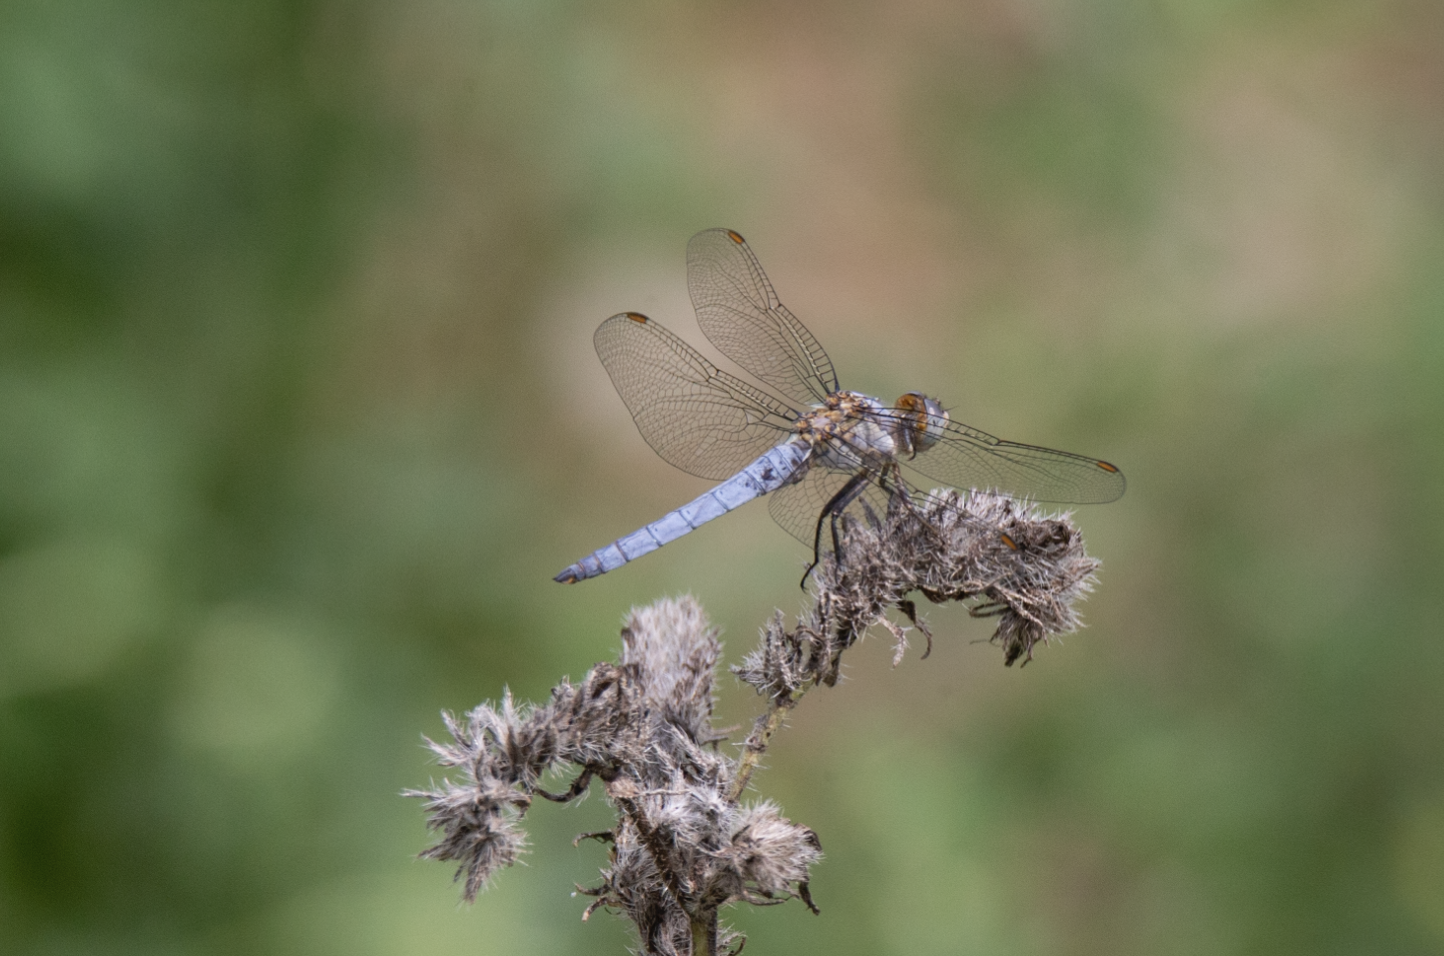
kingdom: Animalia
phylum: Arthropoda
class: Insecta
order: Odonata
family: Libellulidae
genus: Orthetrum
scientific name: Orthetrum brunneum
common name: Southern skimmer
